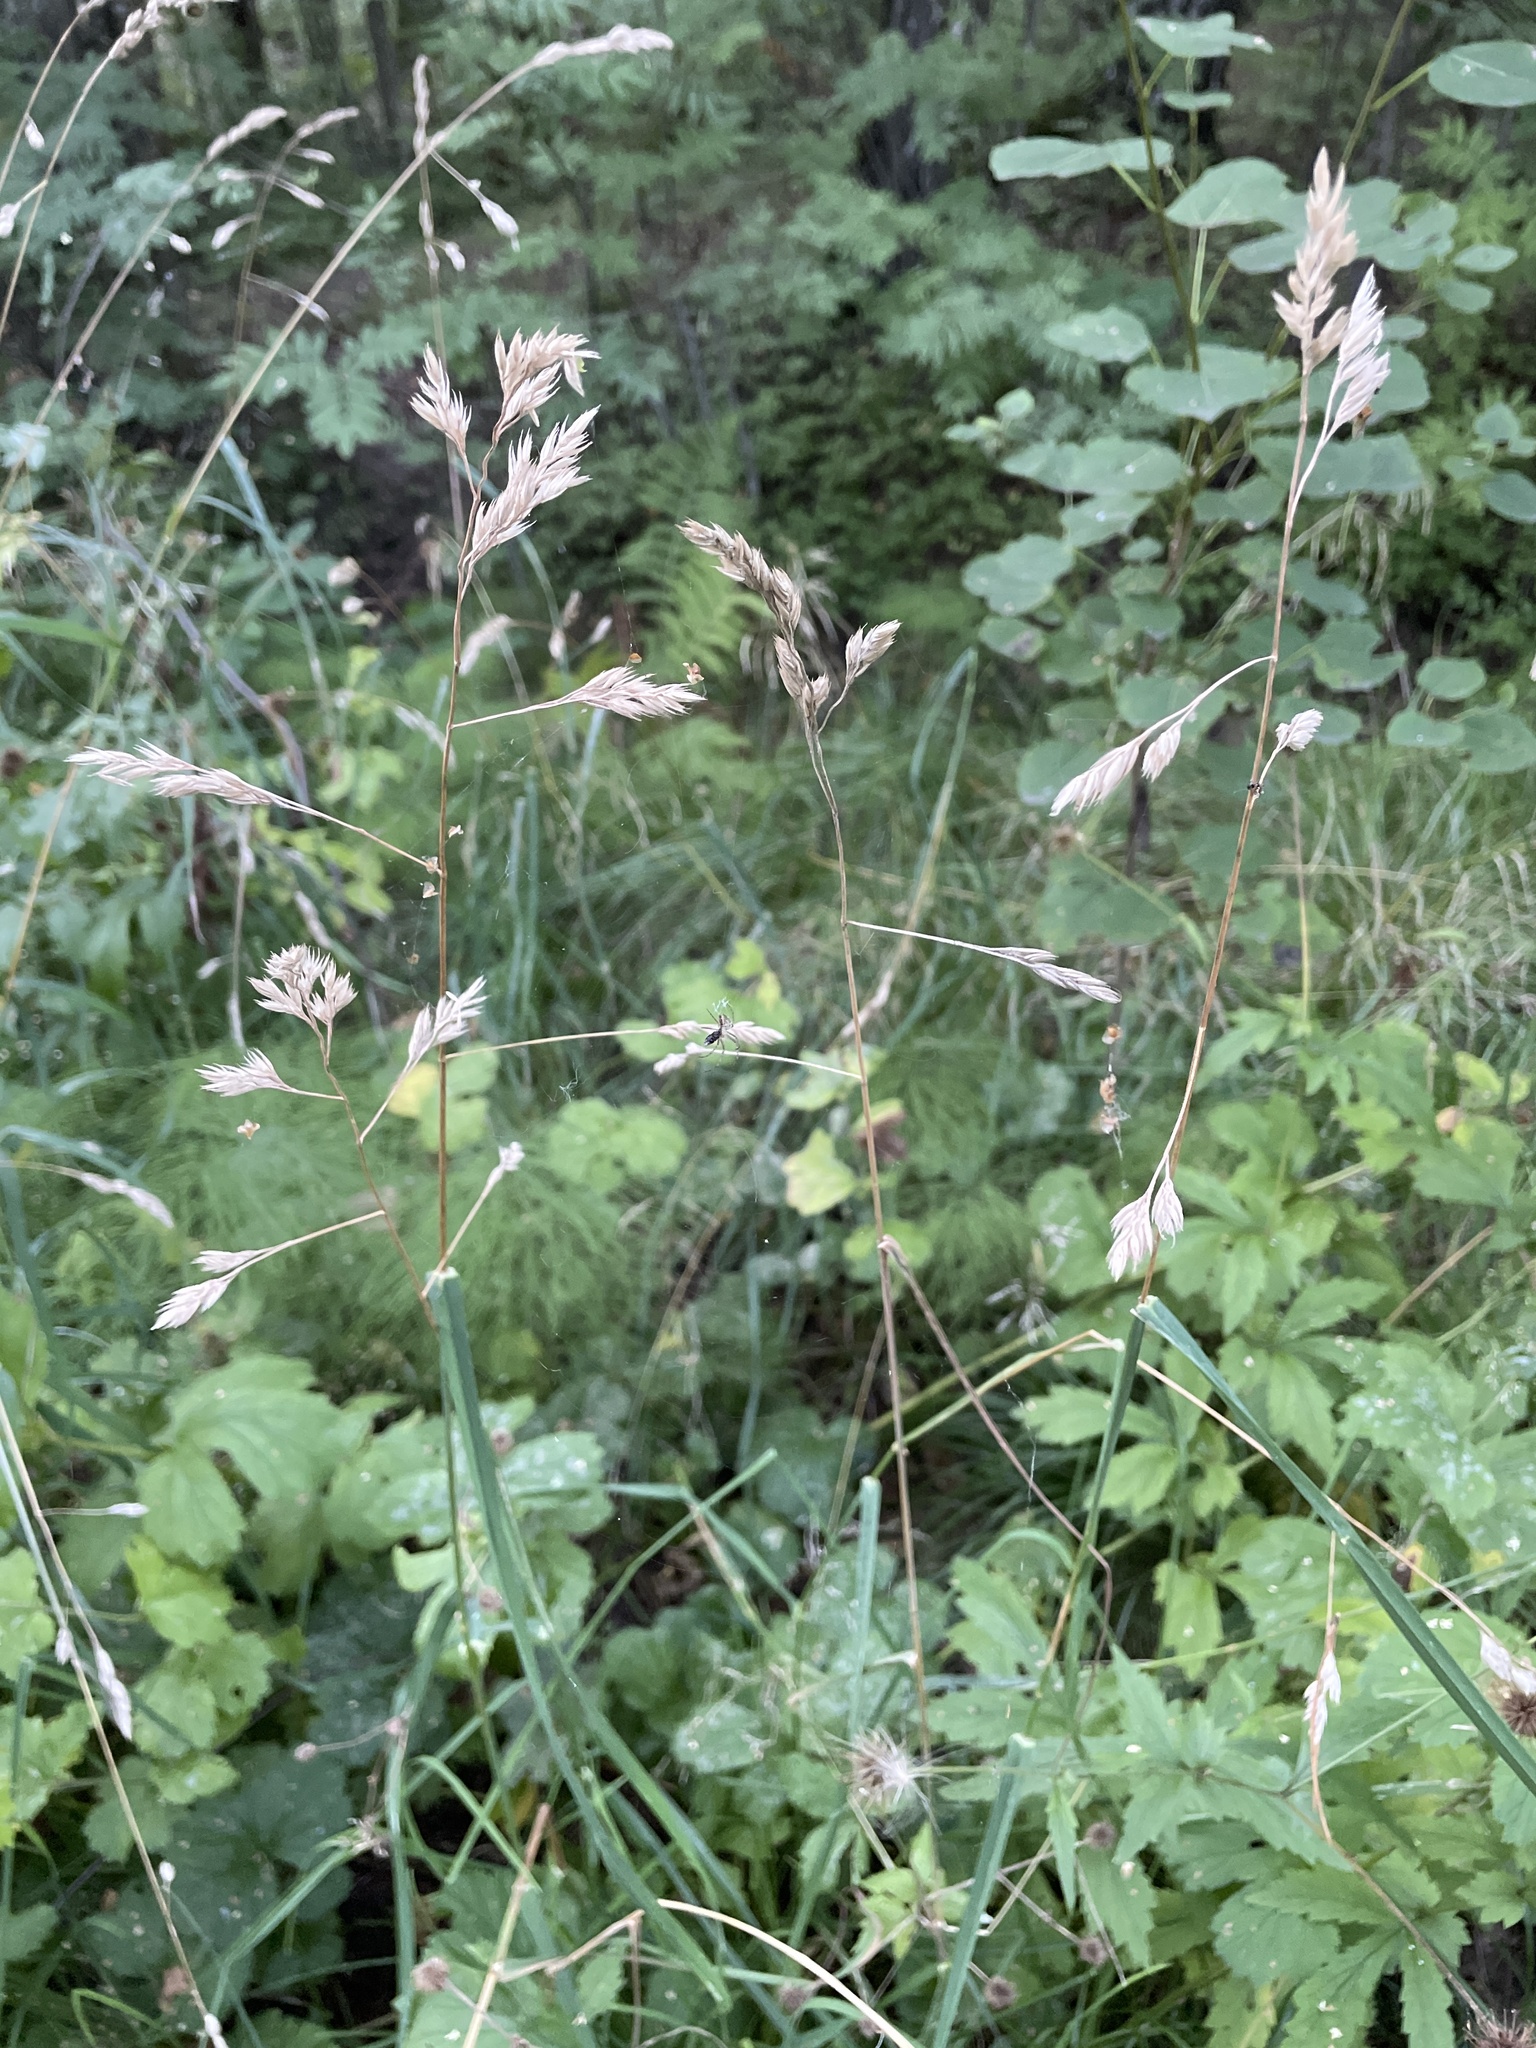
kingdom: Plantae
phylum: Tracheophyta
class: Liliopsida
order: Poales
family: Poaceae
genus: Dactylis
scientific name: Dactylis glomerata
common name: Orchardgrass
